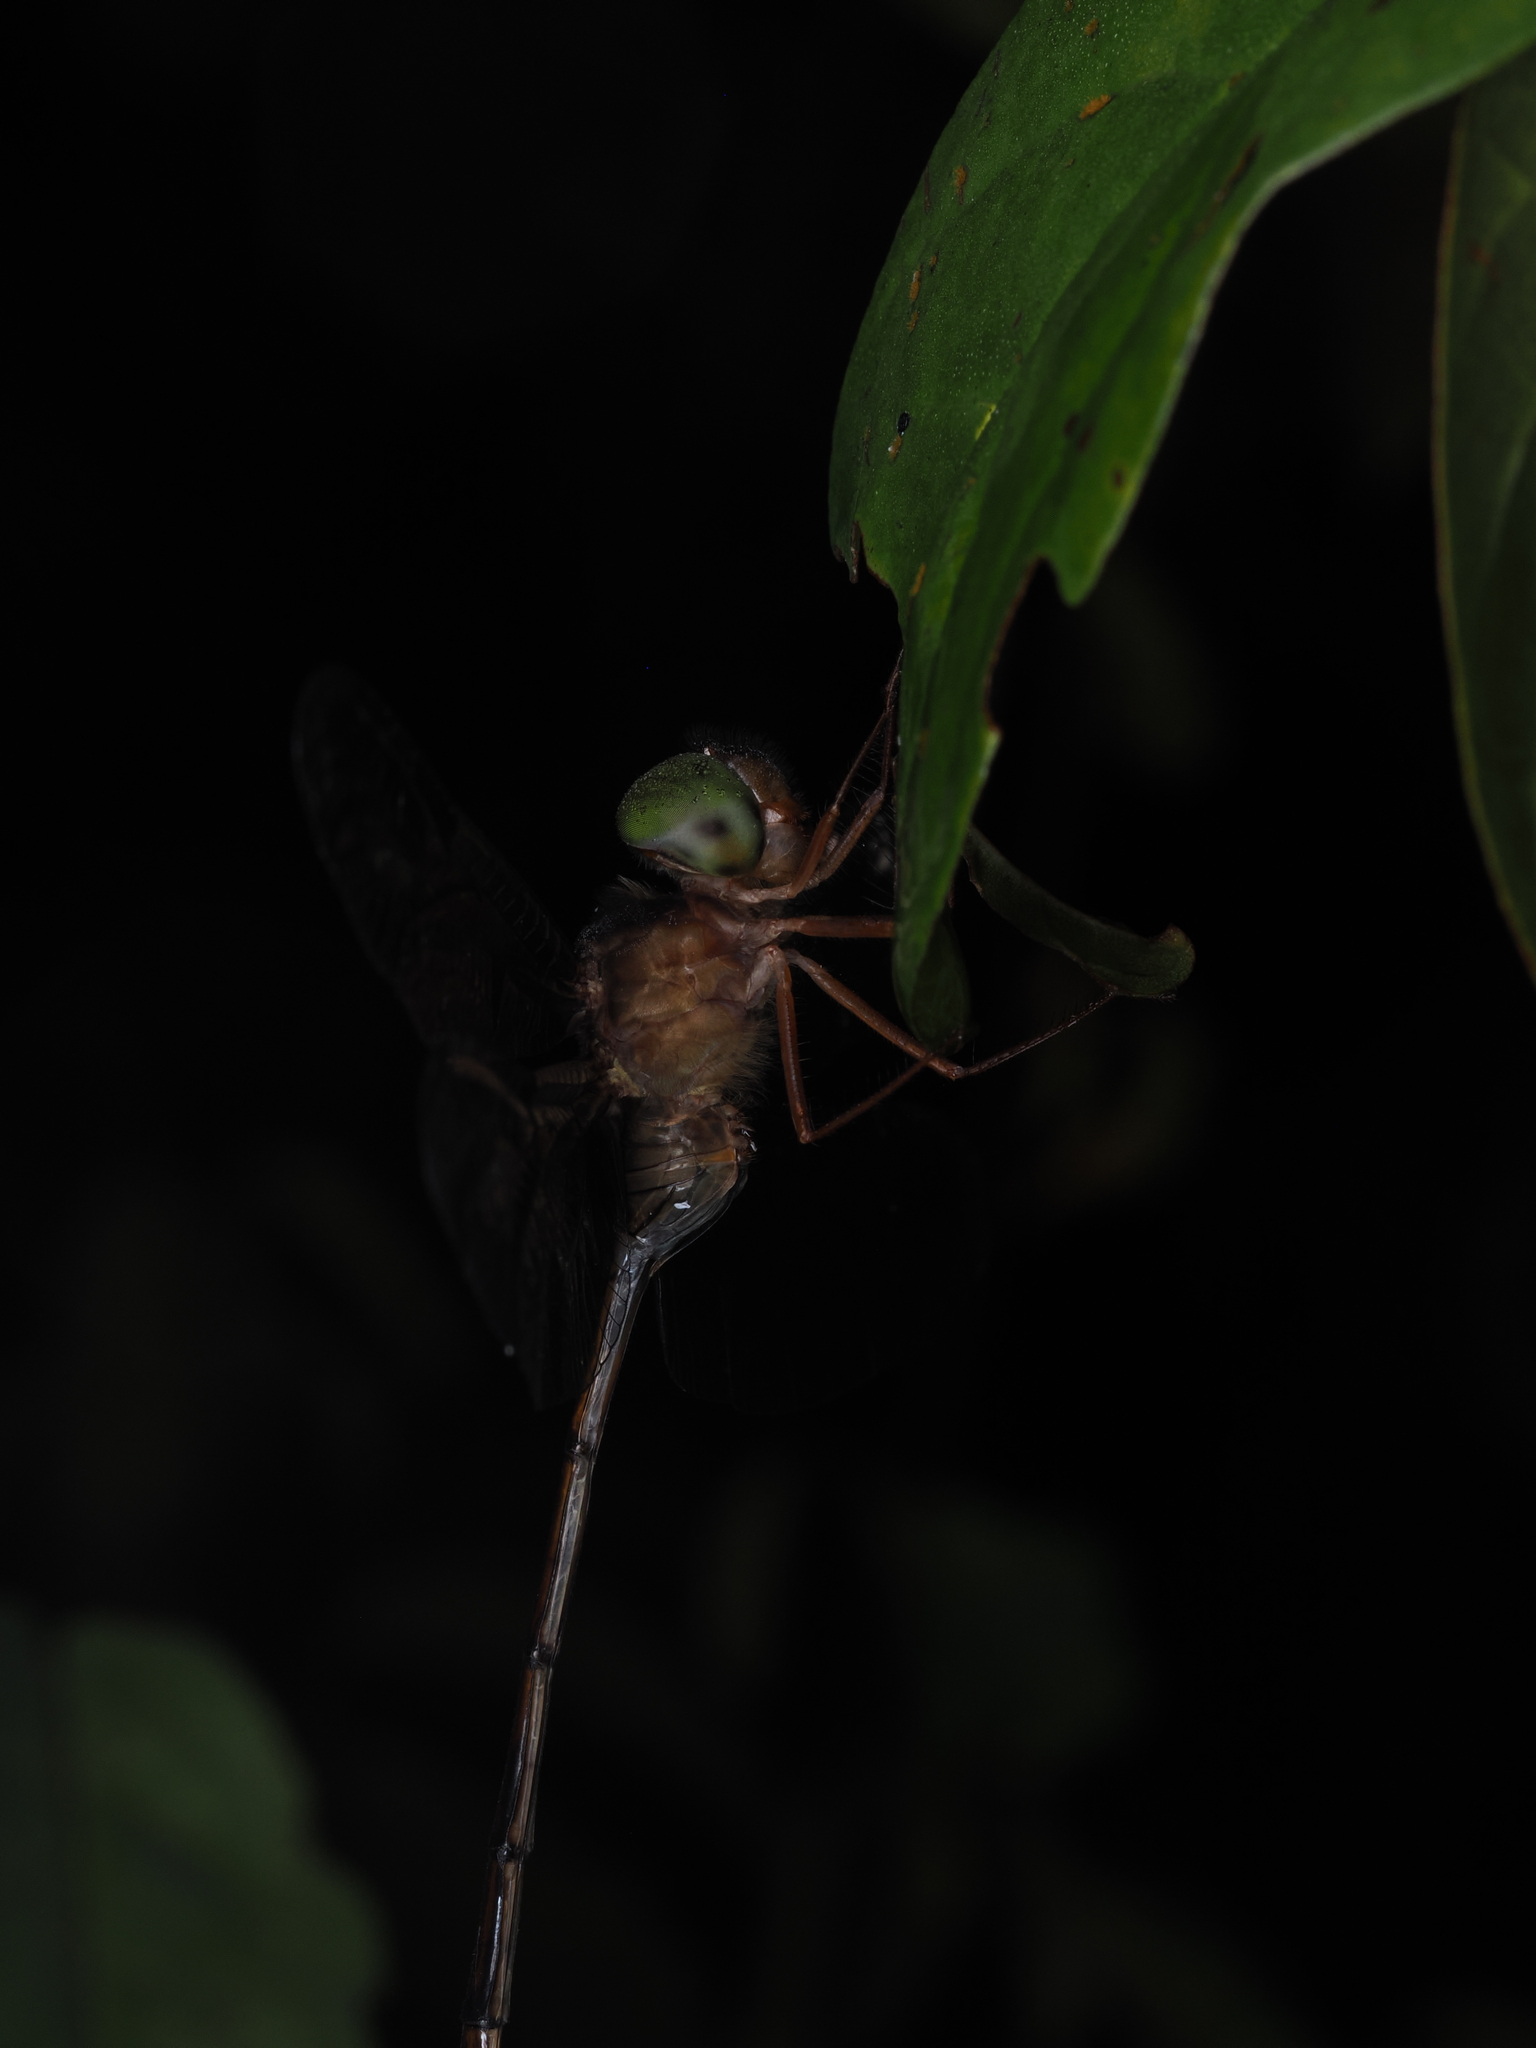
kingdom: Animalia
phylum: Arthropoda
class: Insecta
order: Odonata
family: Libellulidae
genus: Zyxomma
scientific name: Zyxomma petiolatum
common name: Dingy dusk-darter
